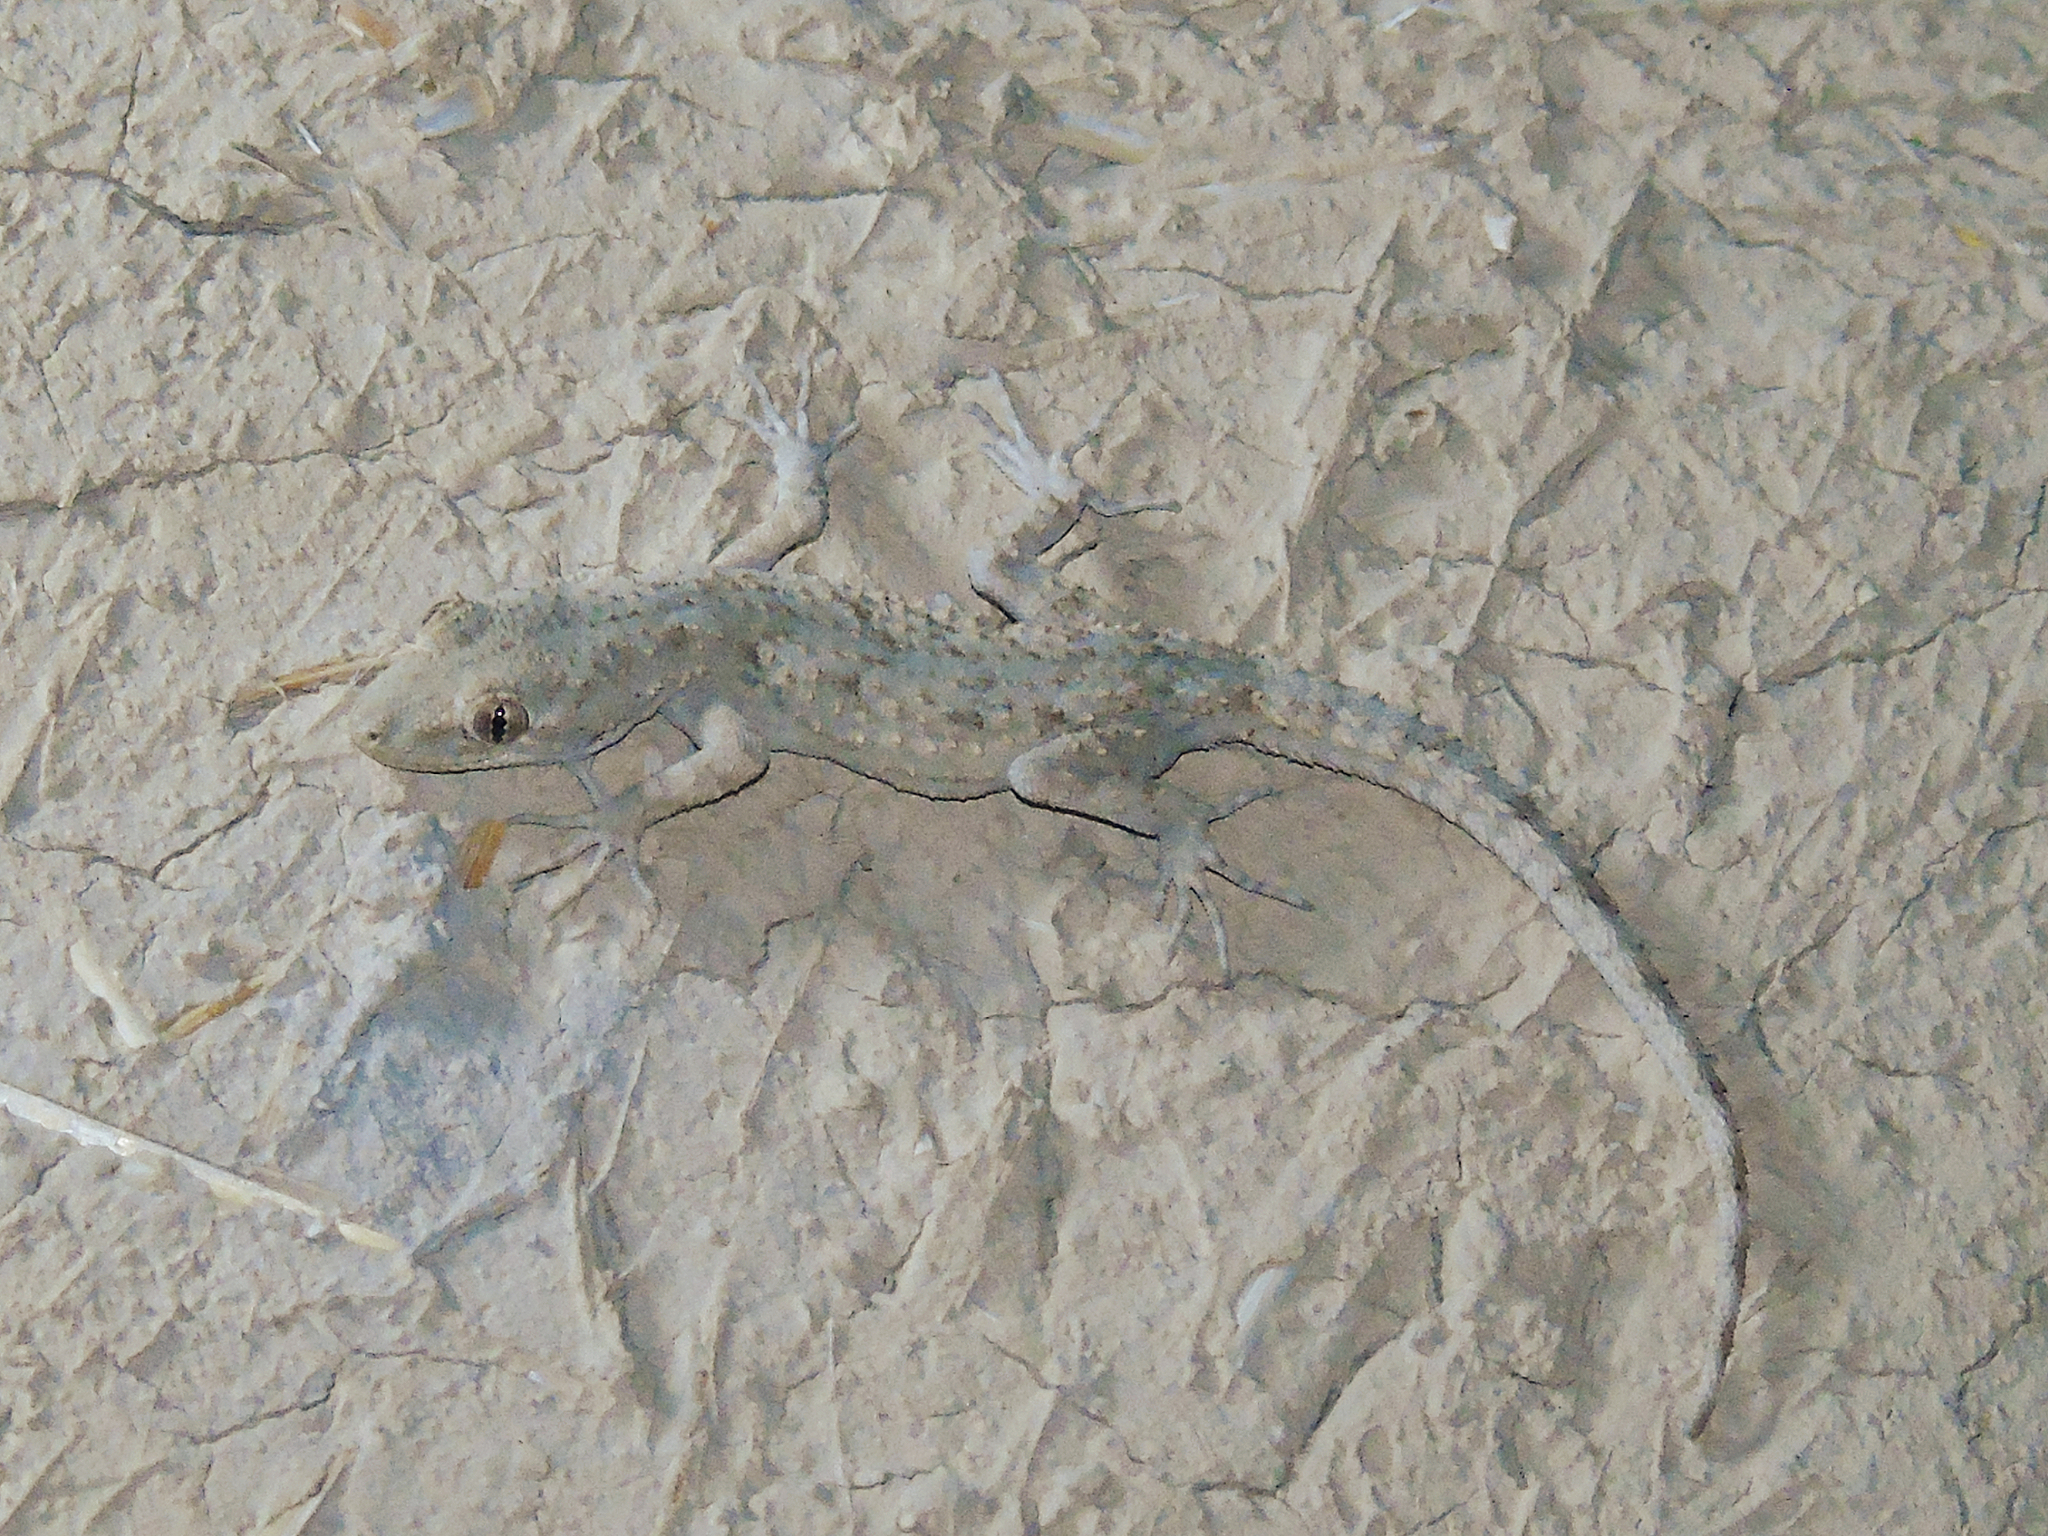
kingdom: Animalia
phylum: Chordata
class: Squamata
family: Gekkonidae
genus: Mediodactylus
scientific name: Mediodactylus russowii
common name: Grey thin-toed gecko
